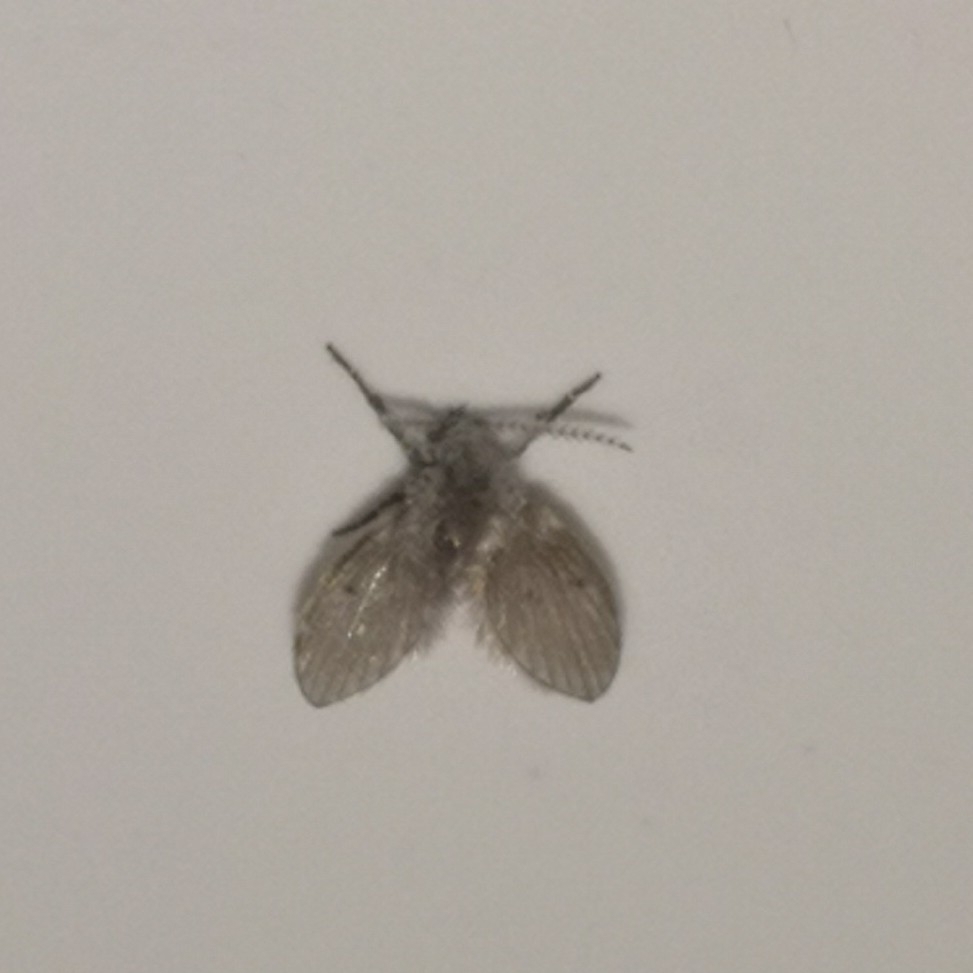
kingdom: Animalia
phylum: Arthropoda
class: Insecta
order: Diptera
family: Psychodidae
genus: Clogmia
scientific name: Clogmia albipunctatus
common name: White-spotted moth fly
